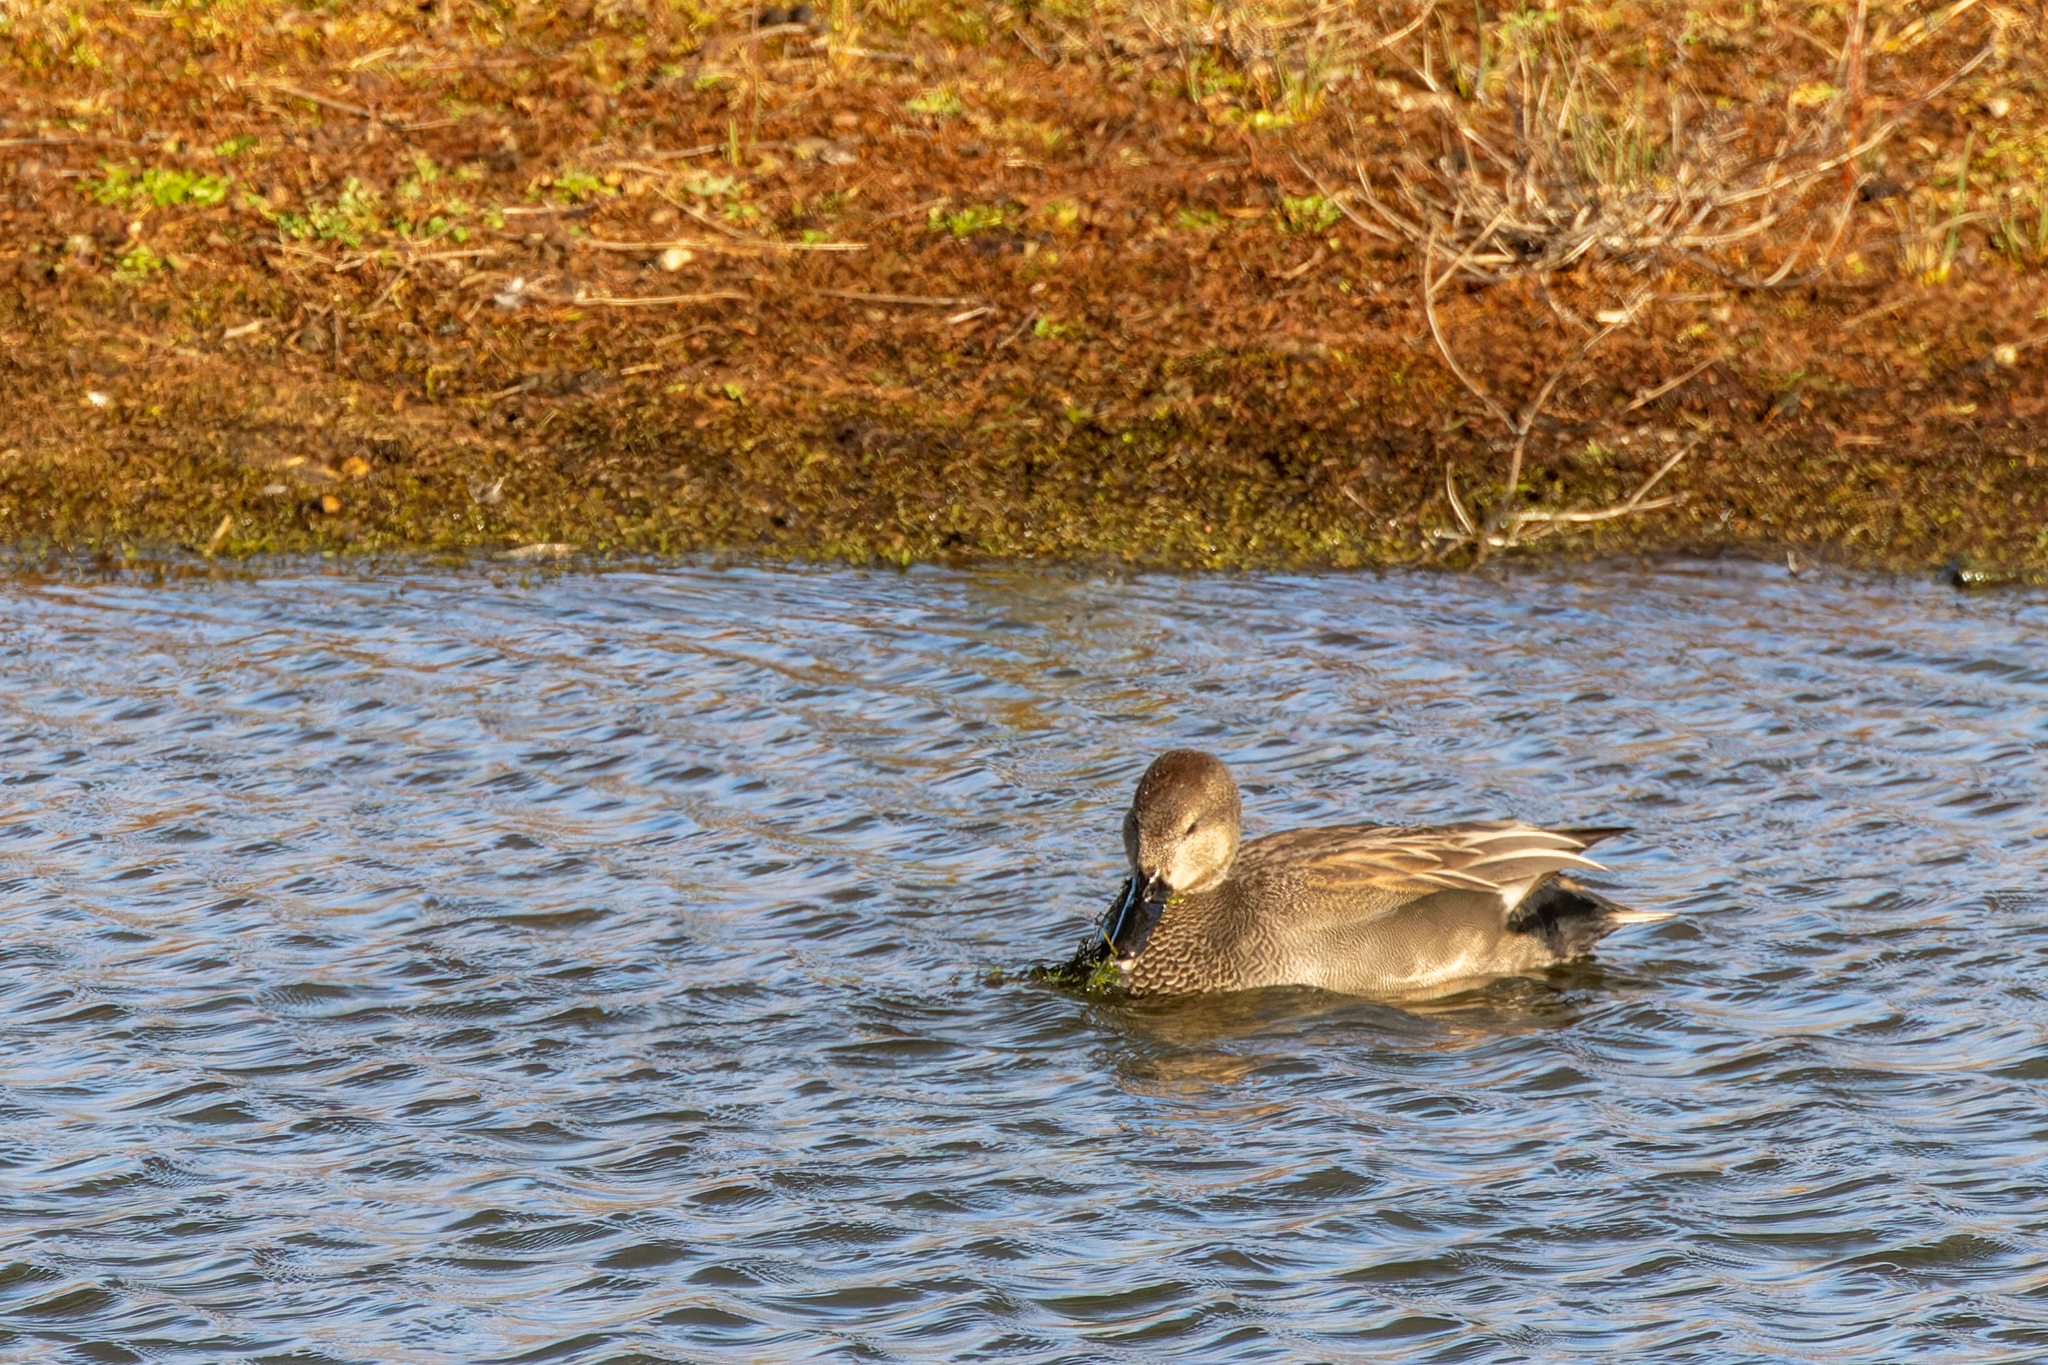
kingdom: Animalia
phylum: Chordata
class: Aves
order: Anseriformes
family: Anatidae
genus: Mareca
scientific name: Mareca strepera
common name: Gadwall
